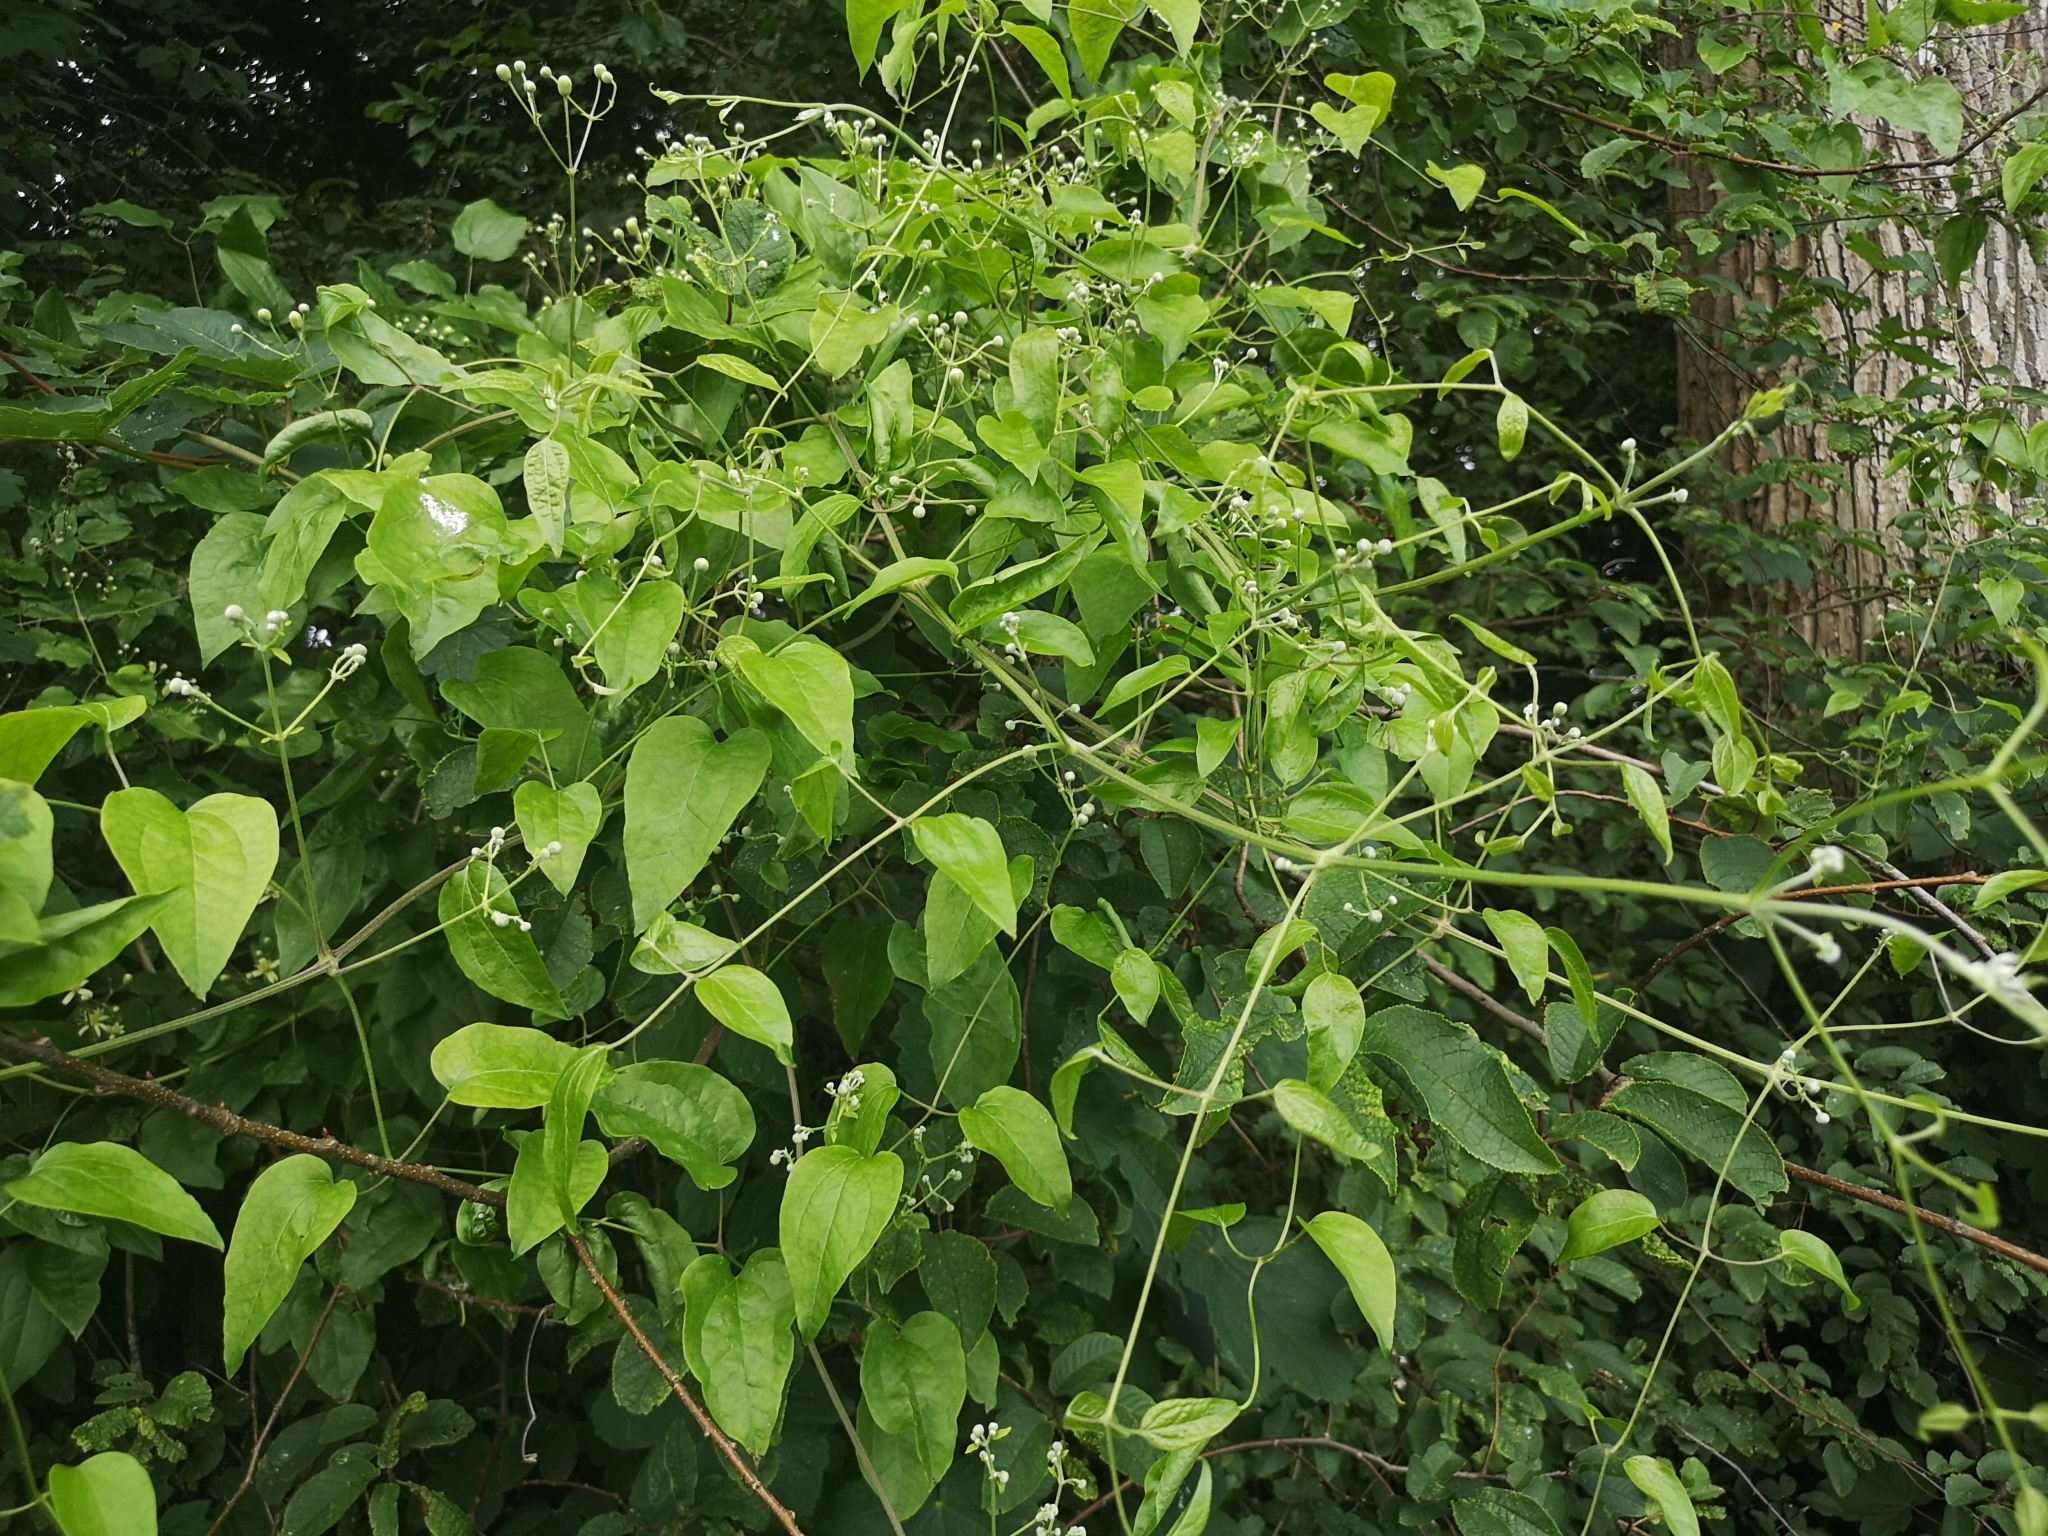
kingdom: Plantae
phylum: Tracheophyta
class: Magnoliopsida
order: Ranunculales
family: Ranunculaceae
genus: Clematis
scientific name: Clematis vitalba
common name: Evergreen clematis
